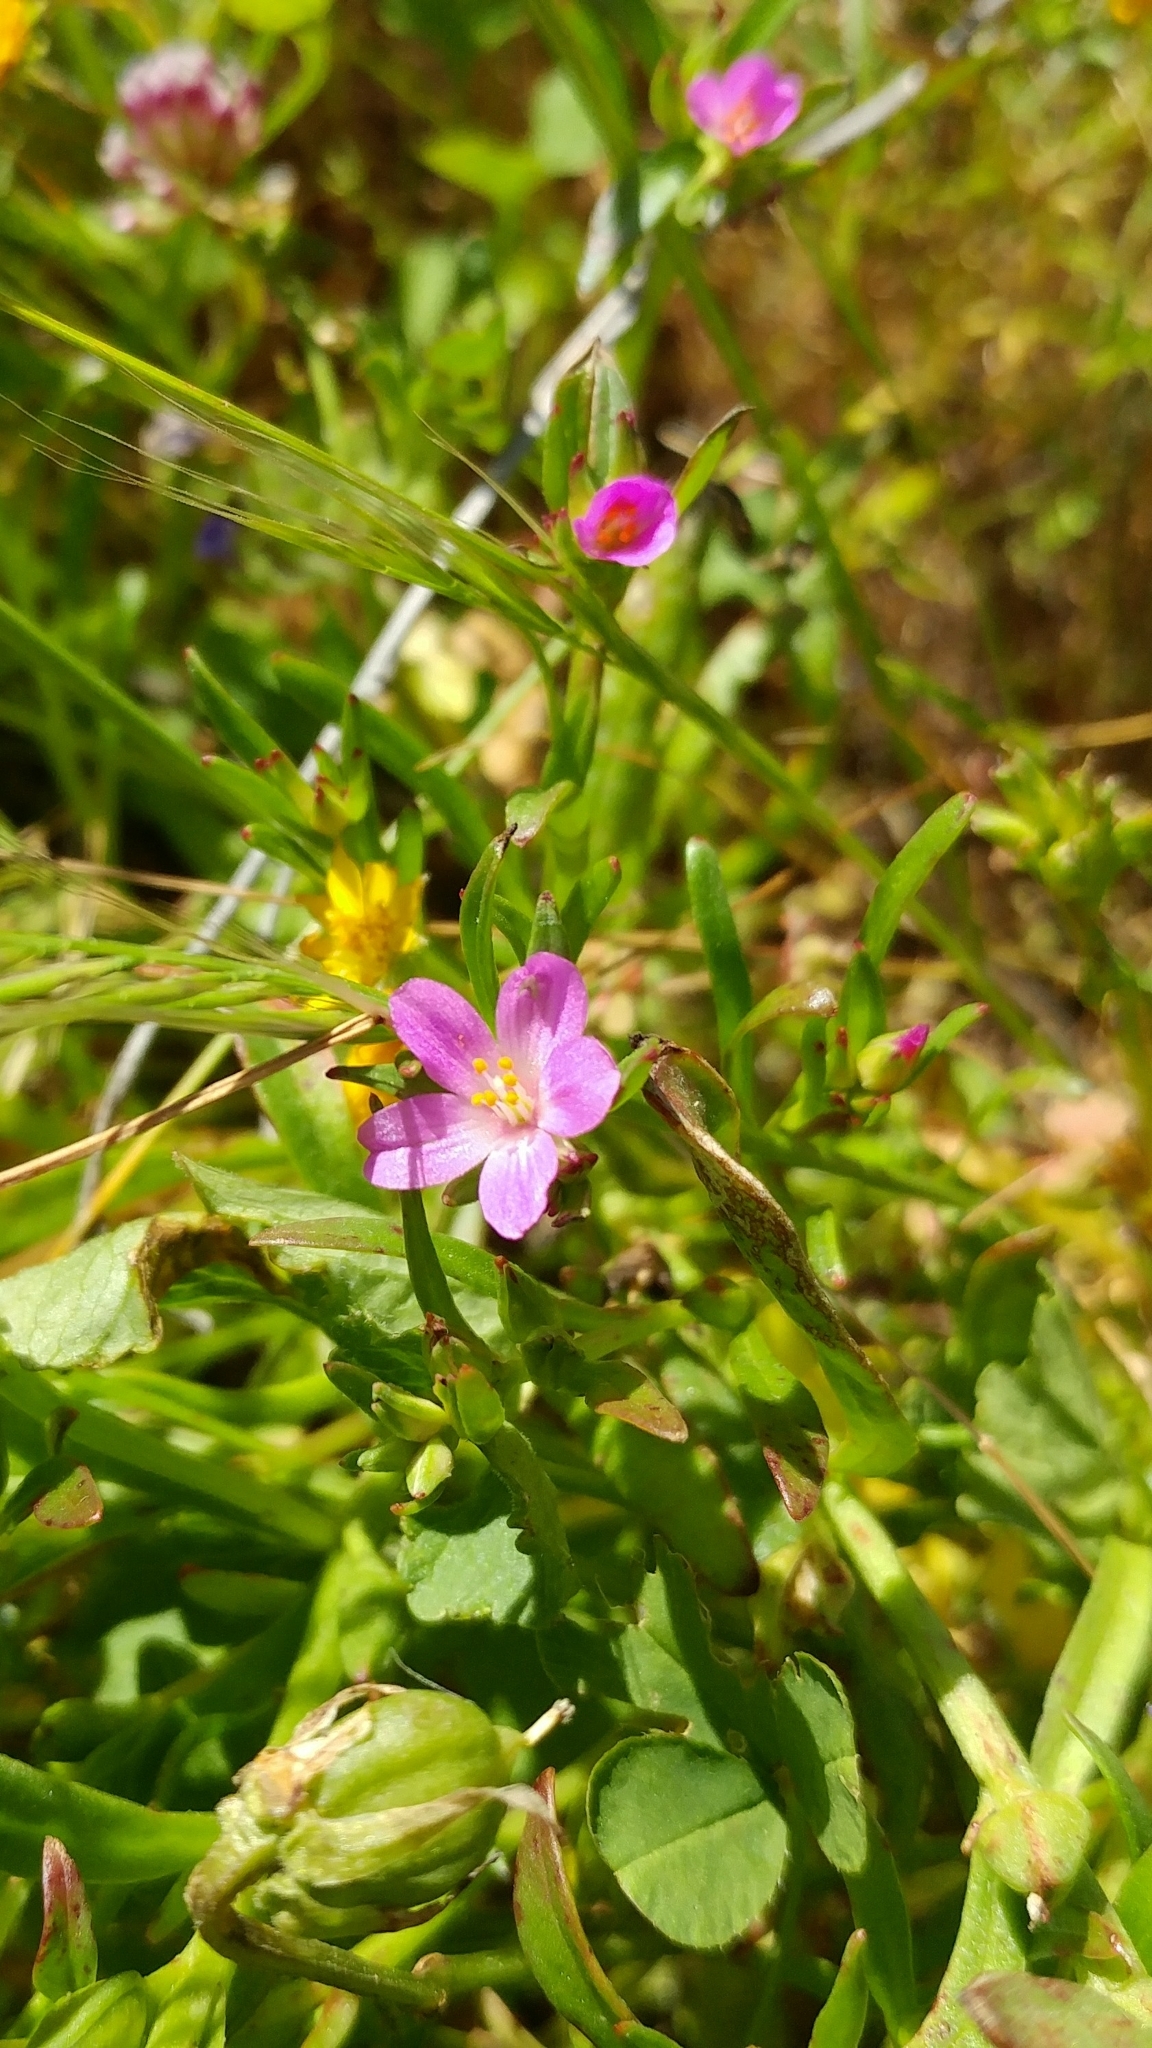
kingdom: Plantae
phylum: Tracheophyta
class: Magnoliopsida
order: Caryophyllales
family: Montiaceae
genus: Calandrinia
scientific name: Calandrinia menziesii
